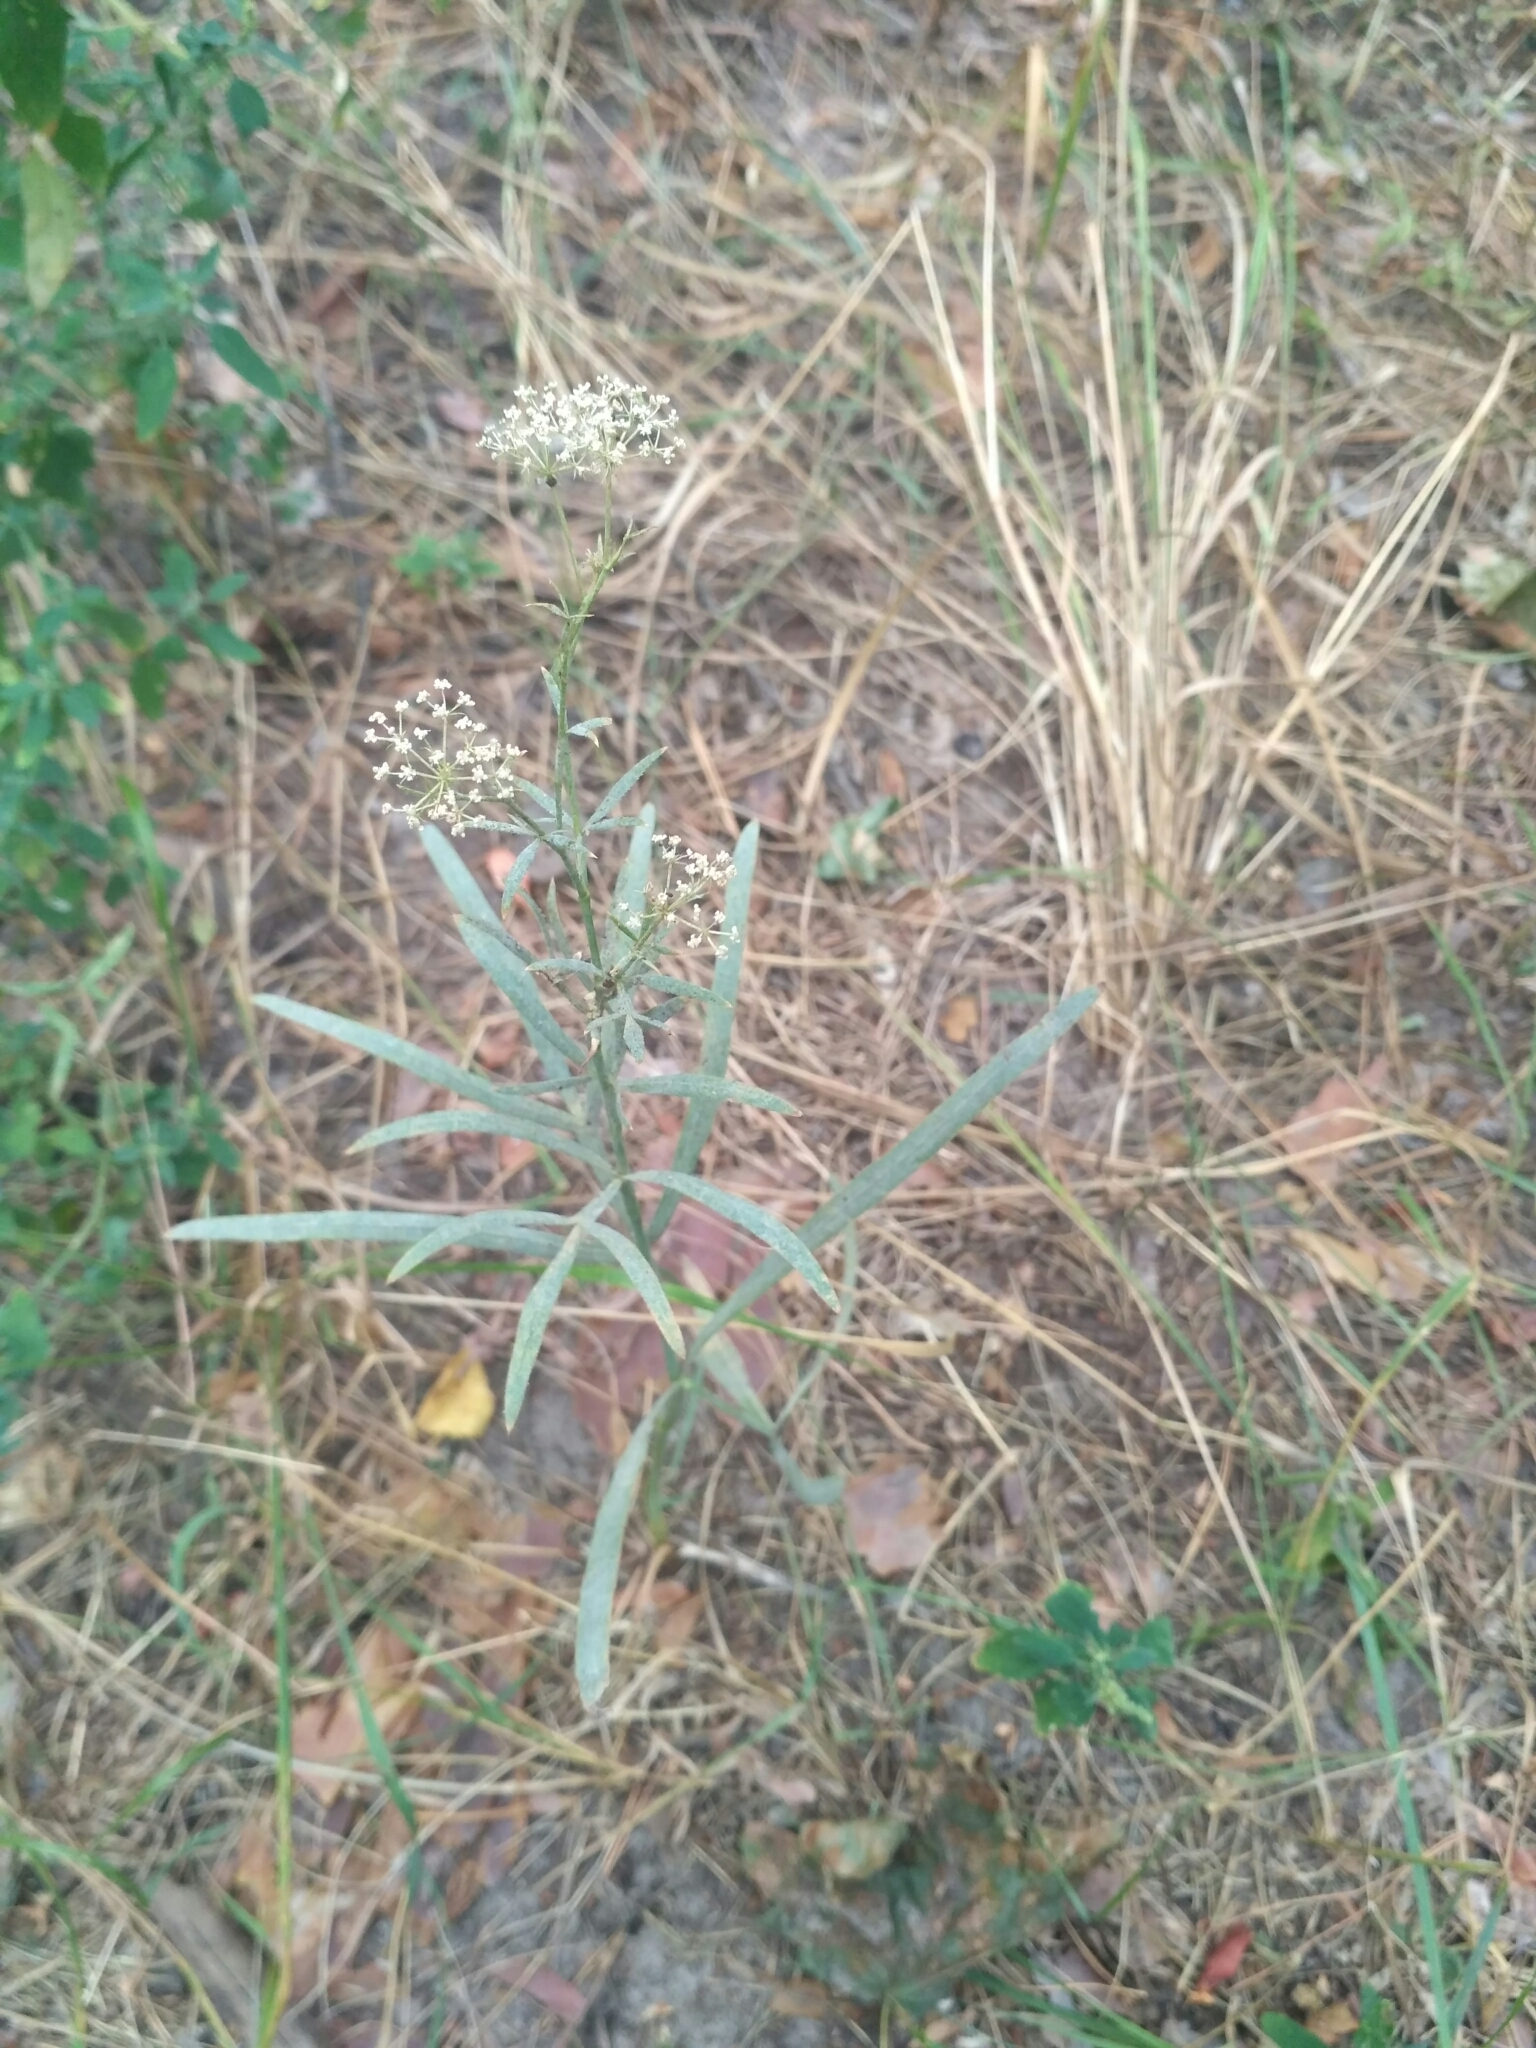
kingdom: Plantae
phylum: Tracheophyta
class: Magnoliopsida
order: Apiales
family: Apiaceae
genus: Falcaria
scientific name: Falcaria vulgaris
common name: Longleaf
